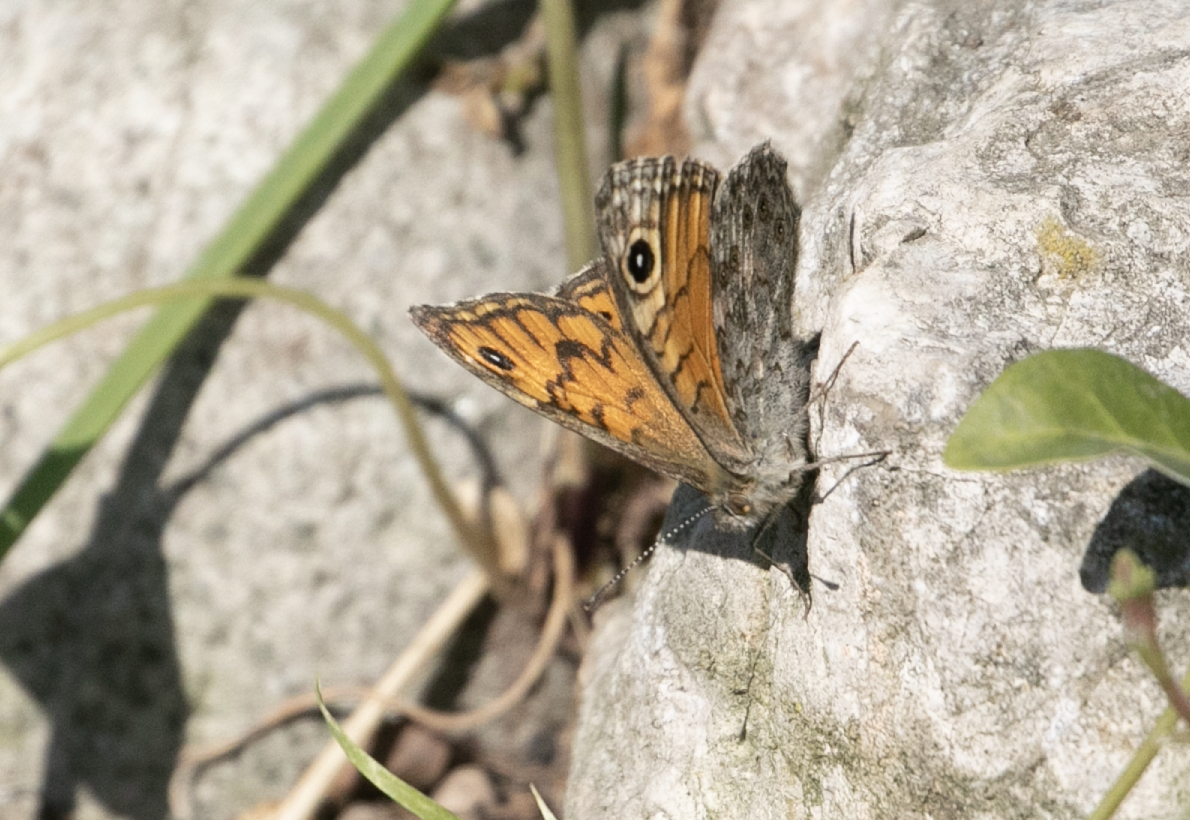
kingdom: Animalia
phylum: Arthropoda
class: Insecta
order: Lepidoptera
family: Nymphalidae
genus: Pararge
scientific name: Pararge Lasiommata megera
